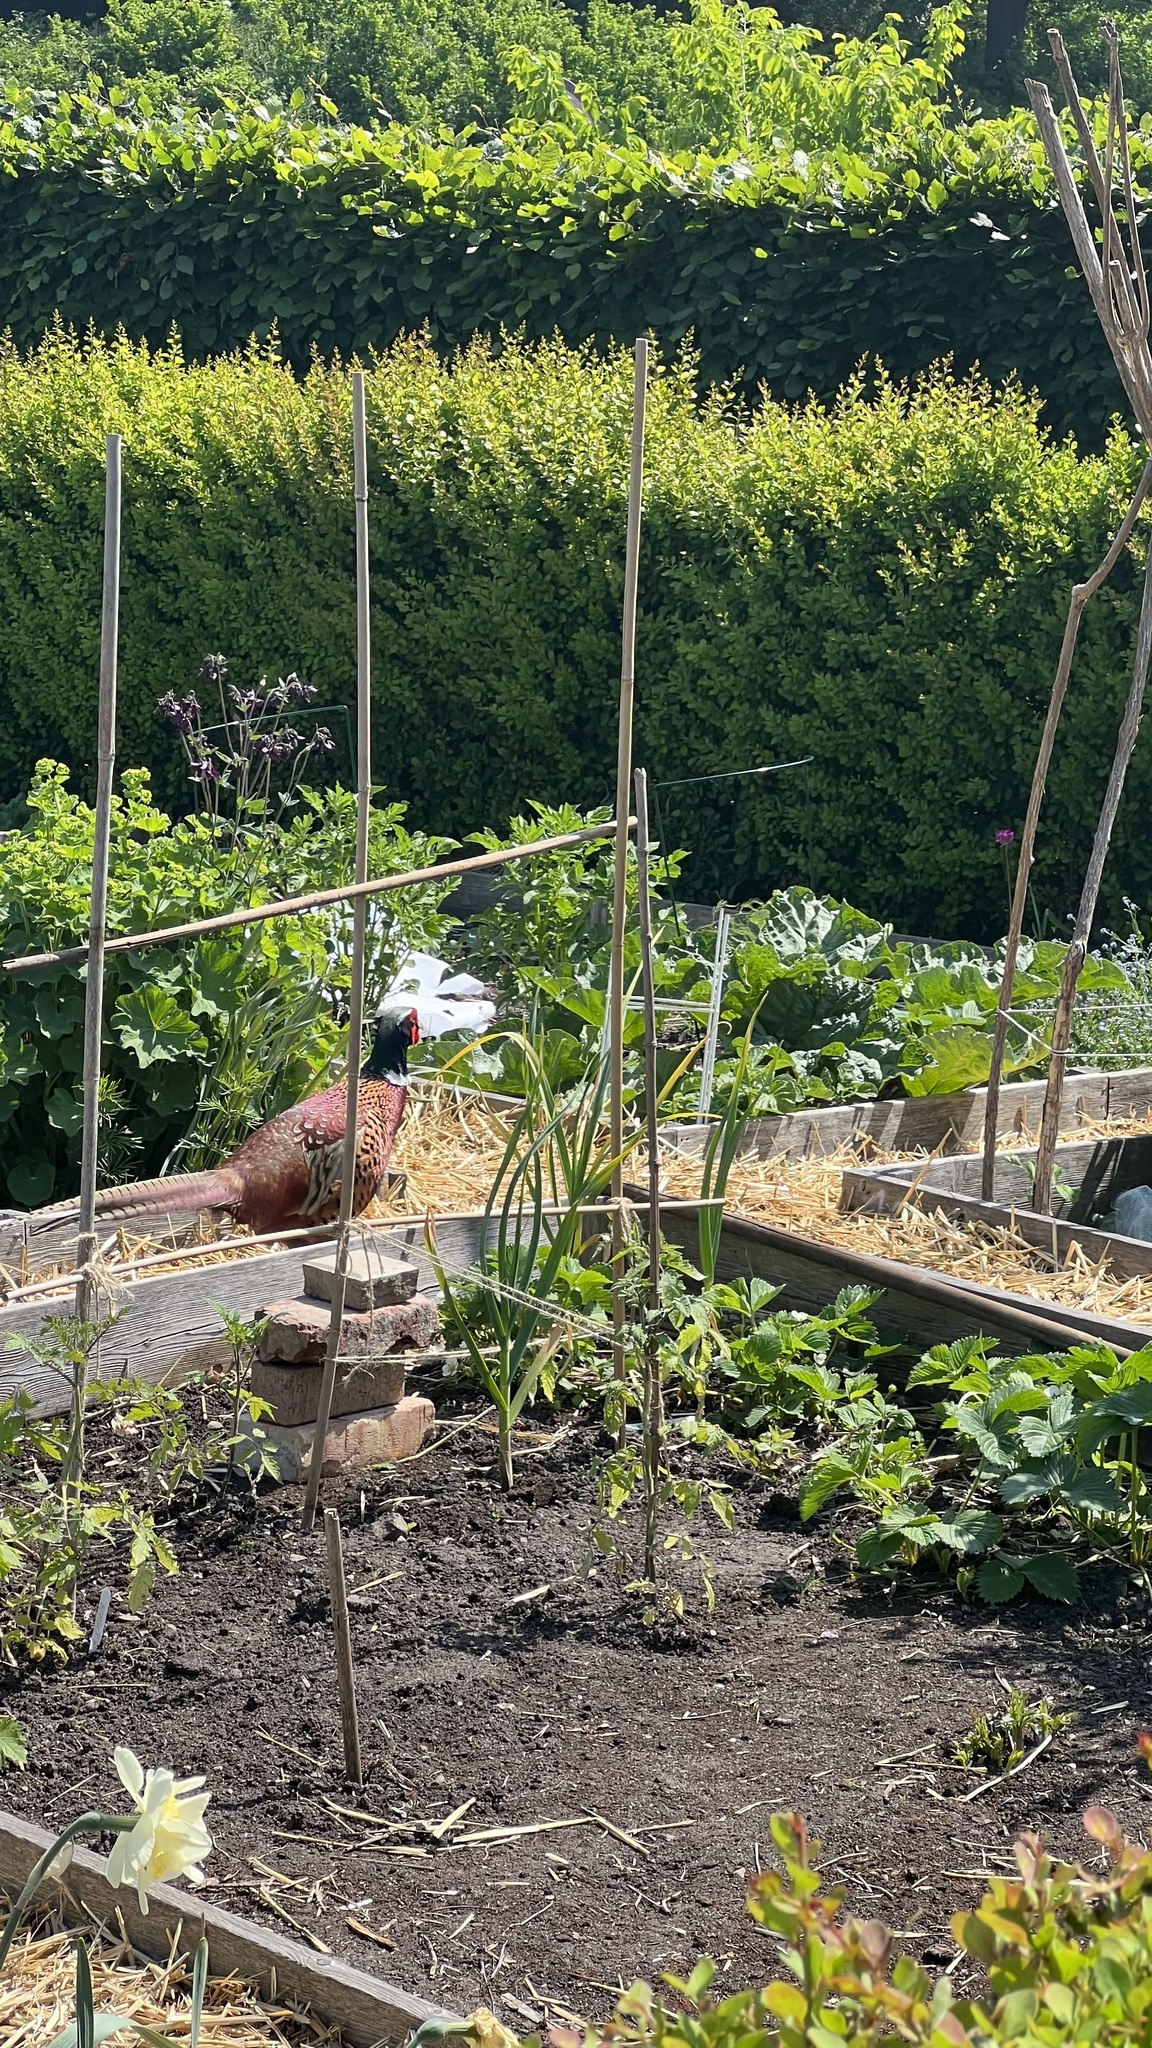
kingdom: Animalia
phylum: Chordata
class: Aves
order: Galliformes
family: Phasianidae
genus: Phasianus
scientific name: Phasianus colchicus
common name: Common pheasant
